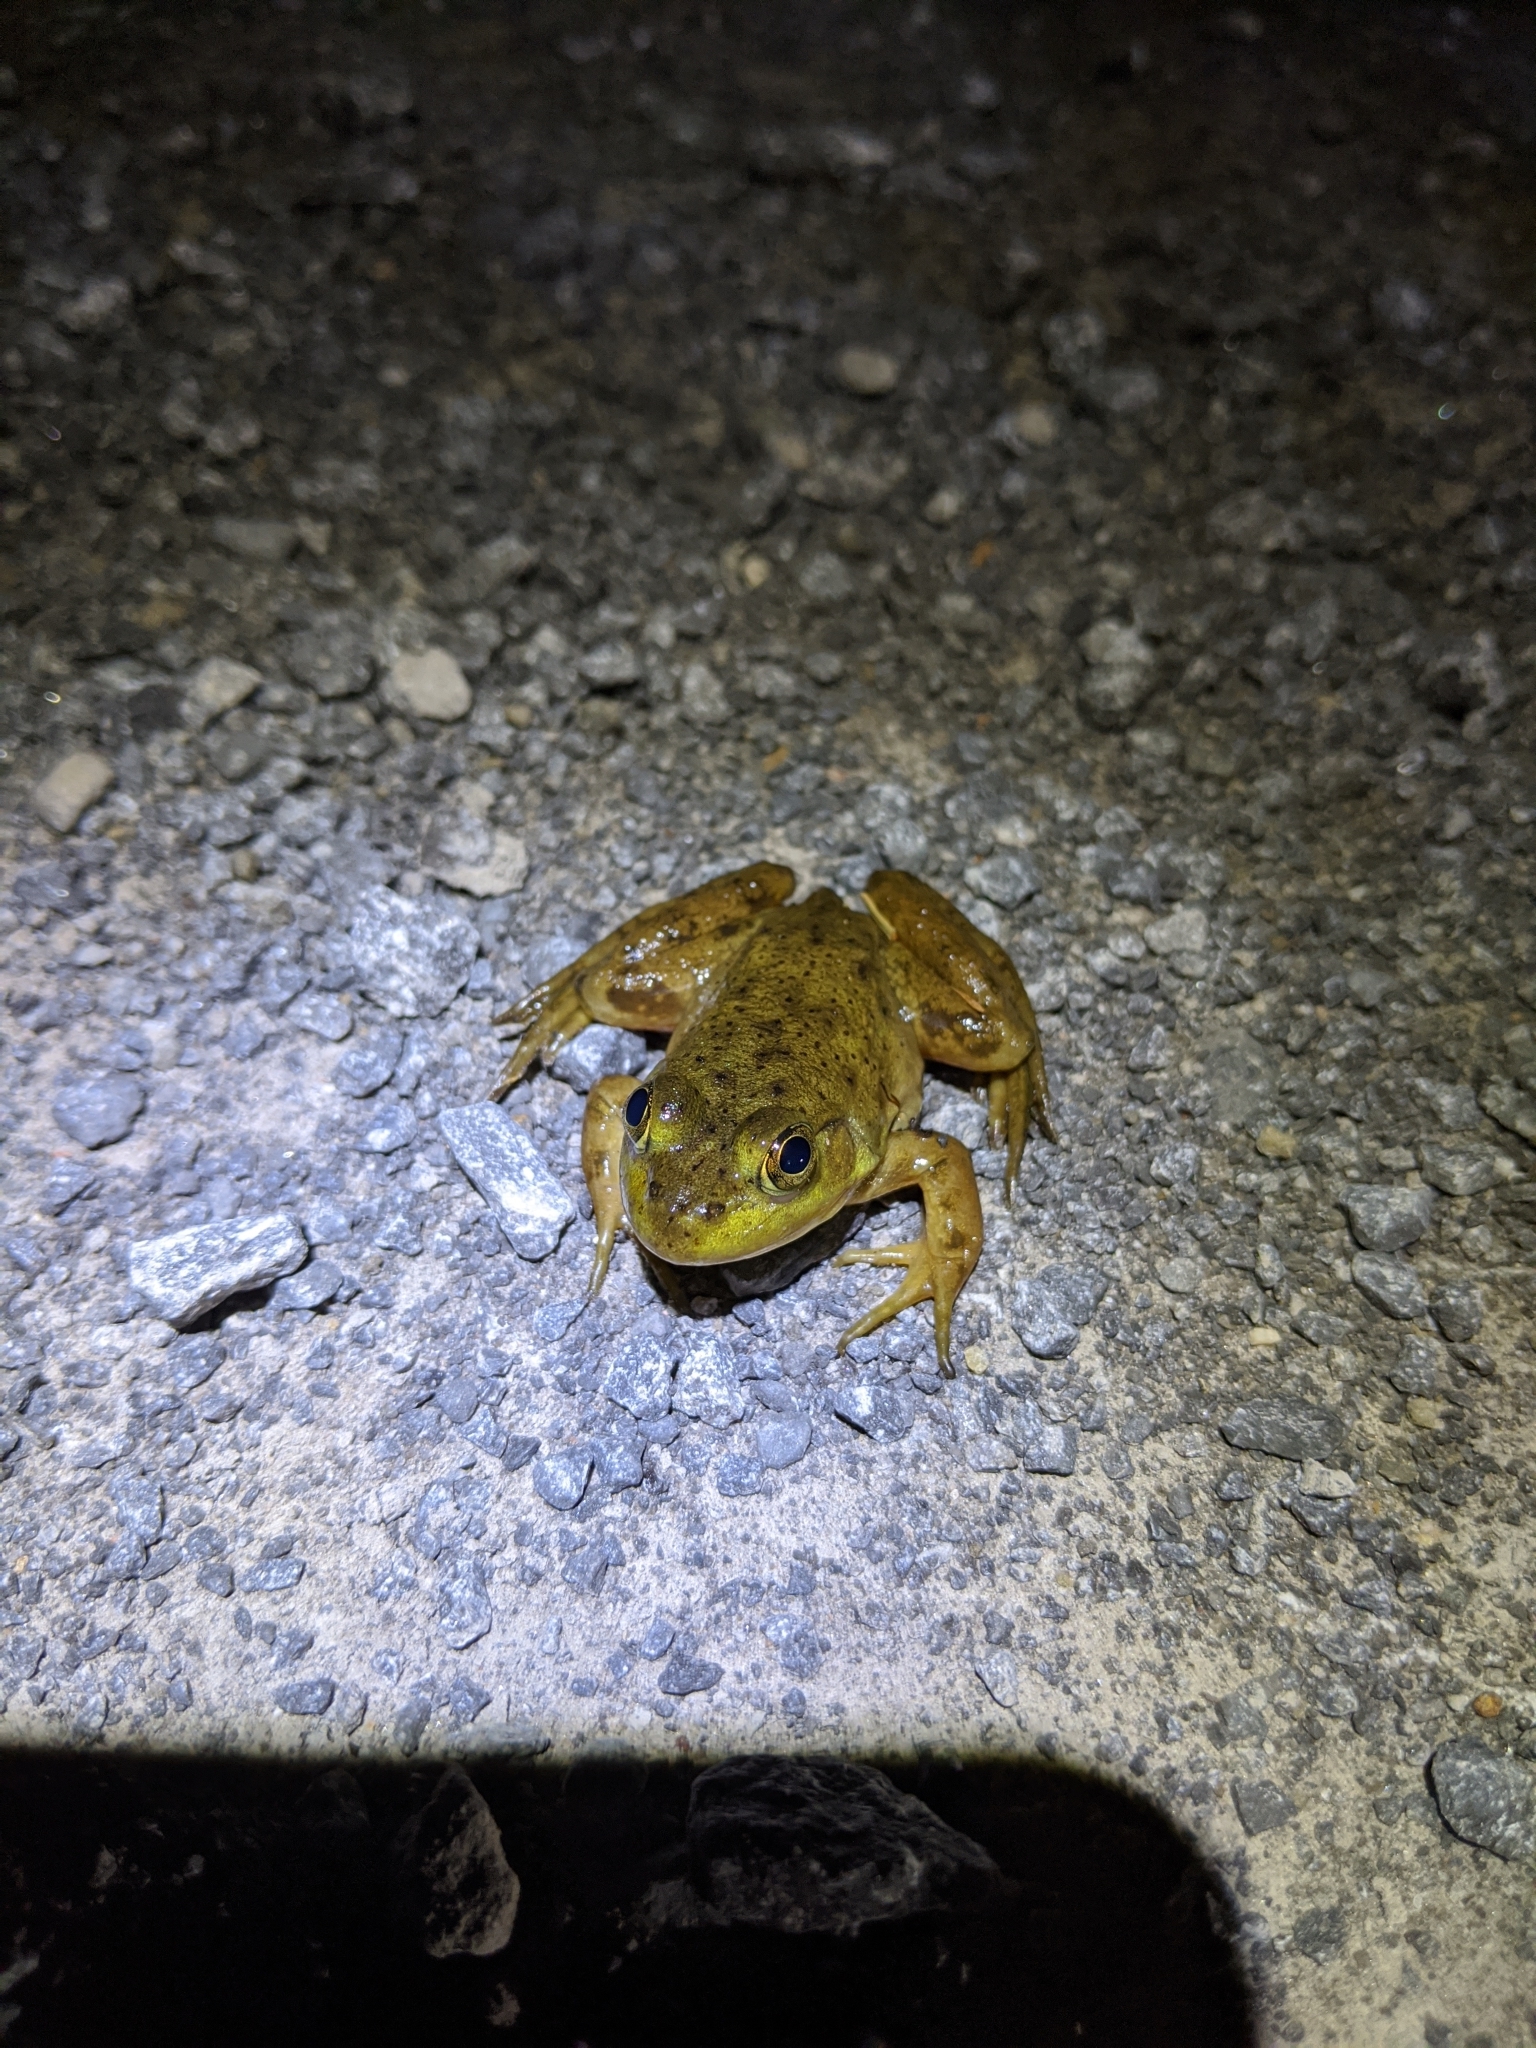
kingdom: Animalia
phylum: Chordata
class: Amphibia
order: Anura
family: Ranidae
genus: Lithobates
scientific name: Lithobates catesbeianus
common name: American bullfrog
